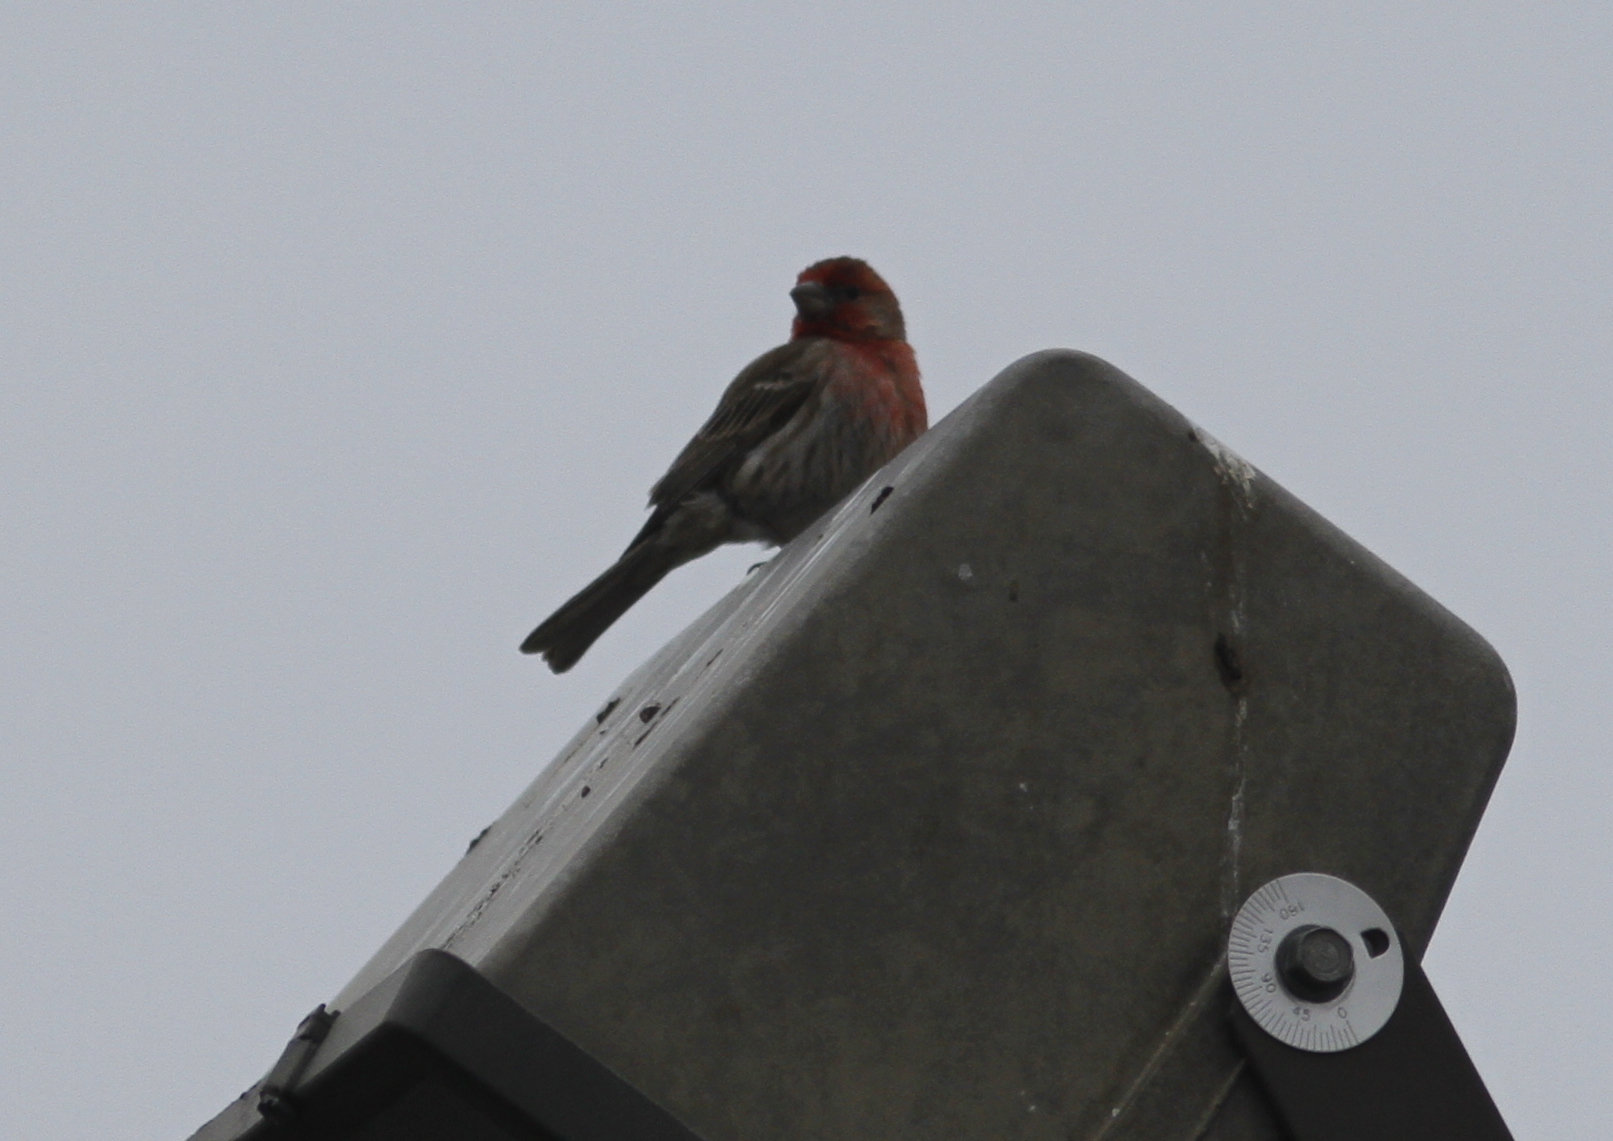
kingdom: Animalia
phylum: Chordata
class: Aves
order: Passeriformes
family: Fringillidae
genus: Haemorhous
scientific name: Haemorhous mexicanus
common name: House finch
